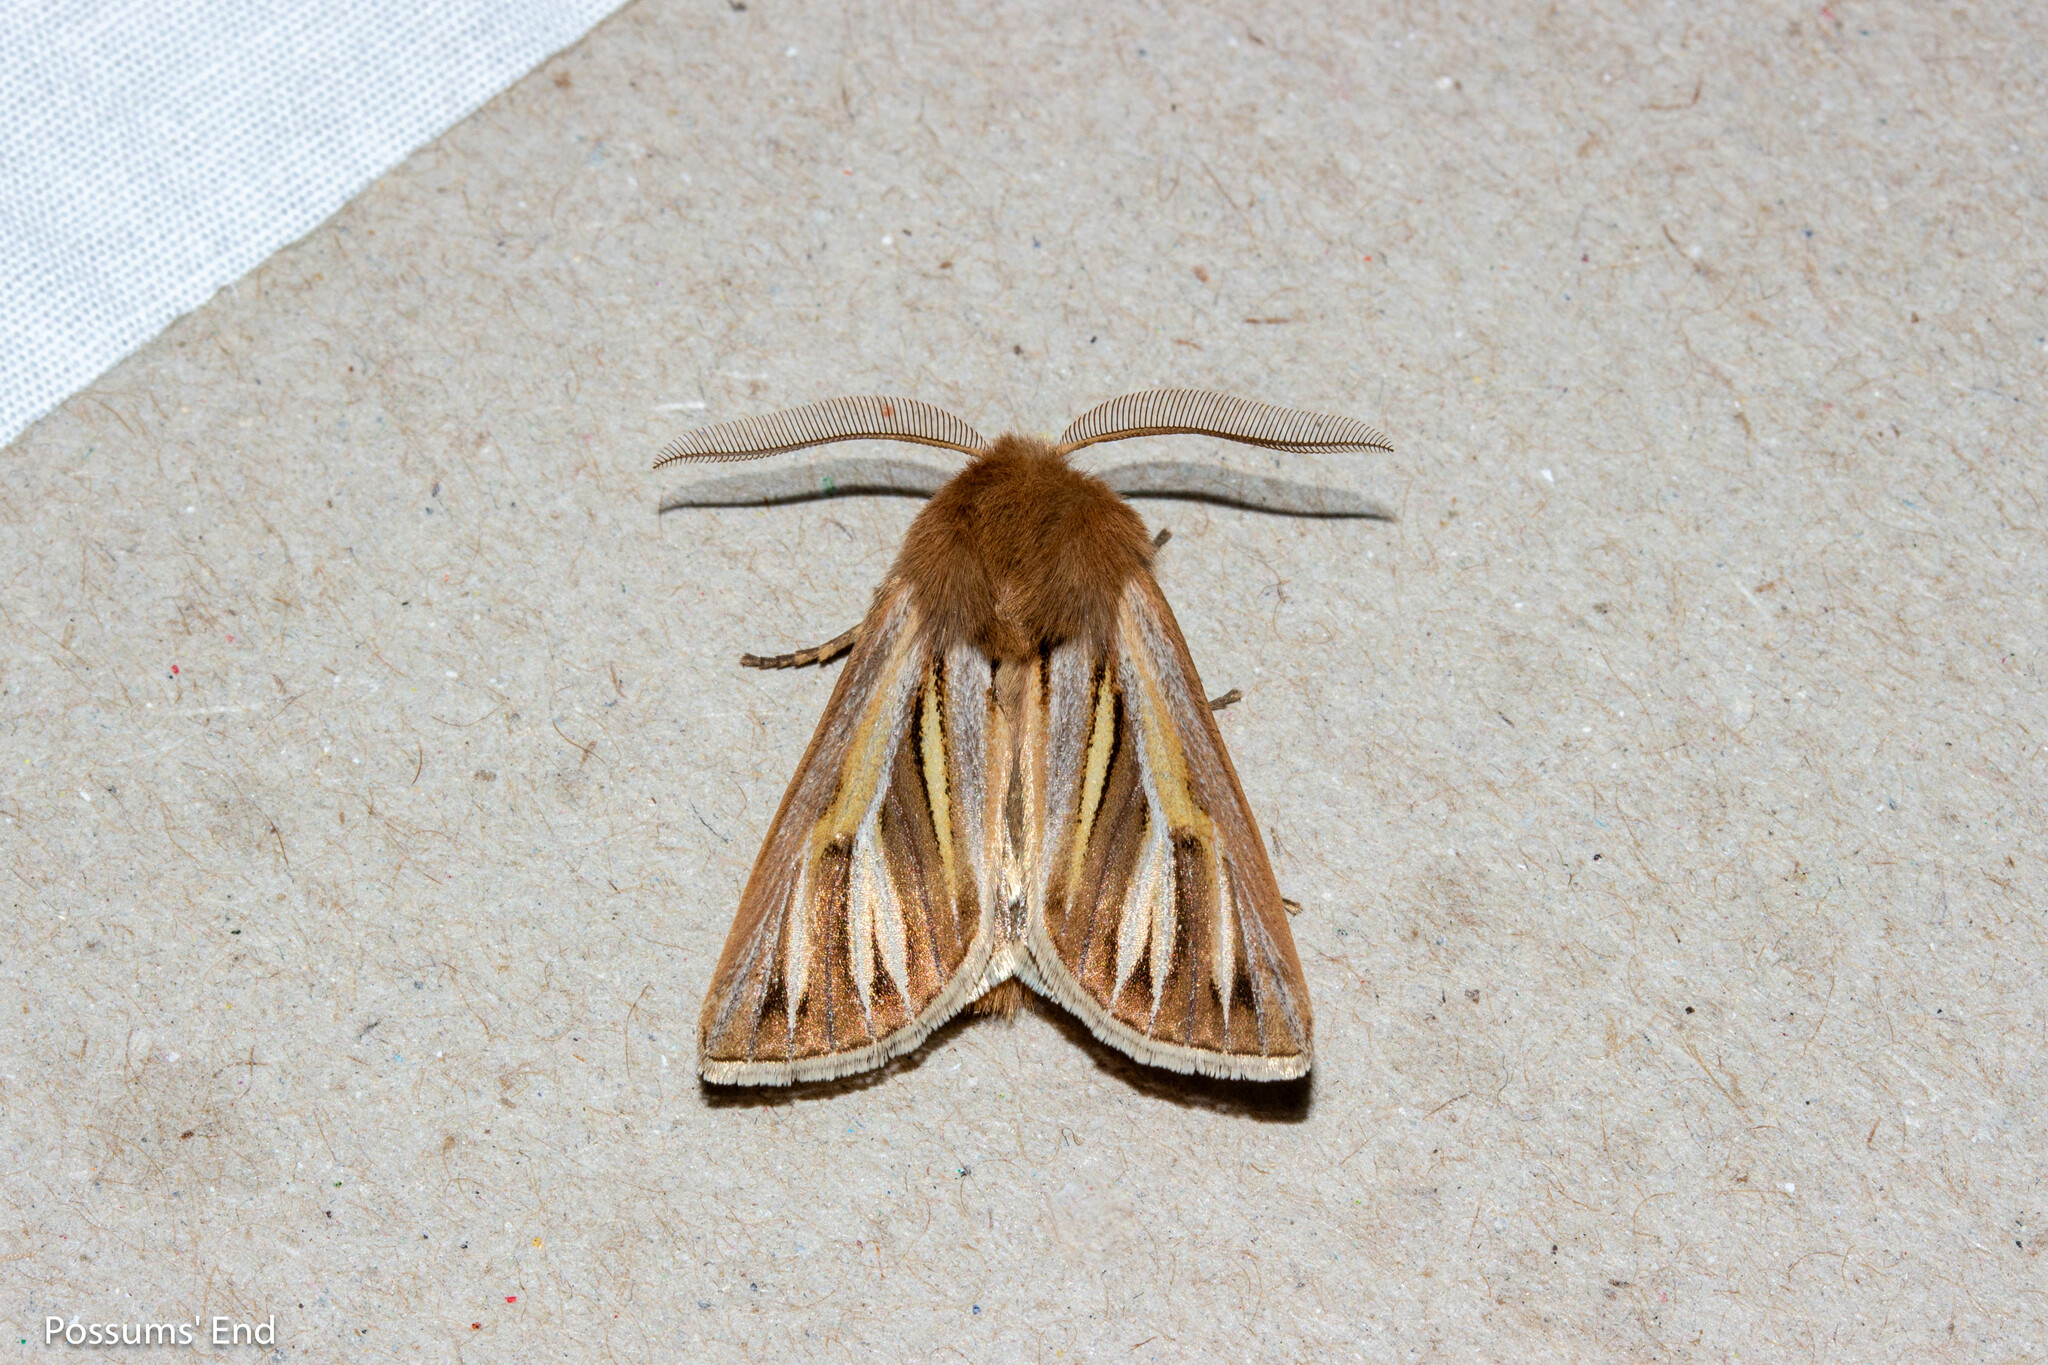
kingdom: Animalia
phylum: Arthropoda
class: Insecta
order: Lepidoptera
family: Noctuidae
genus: Ichneutica
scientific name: Ichneutica caraunias
